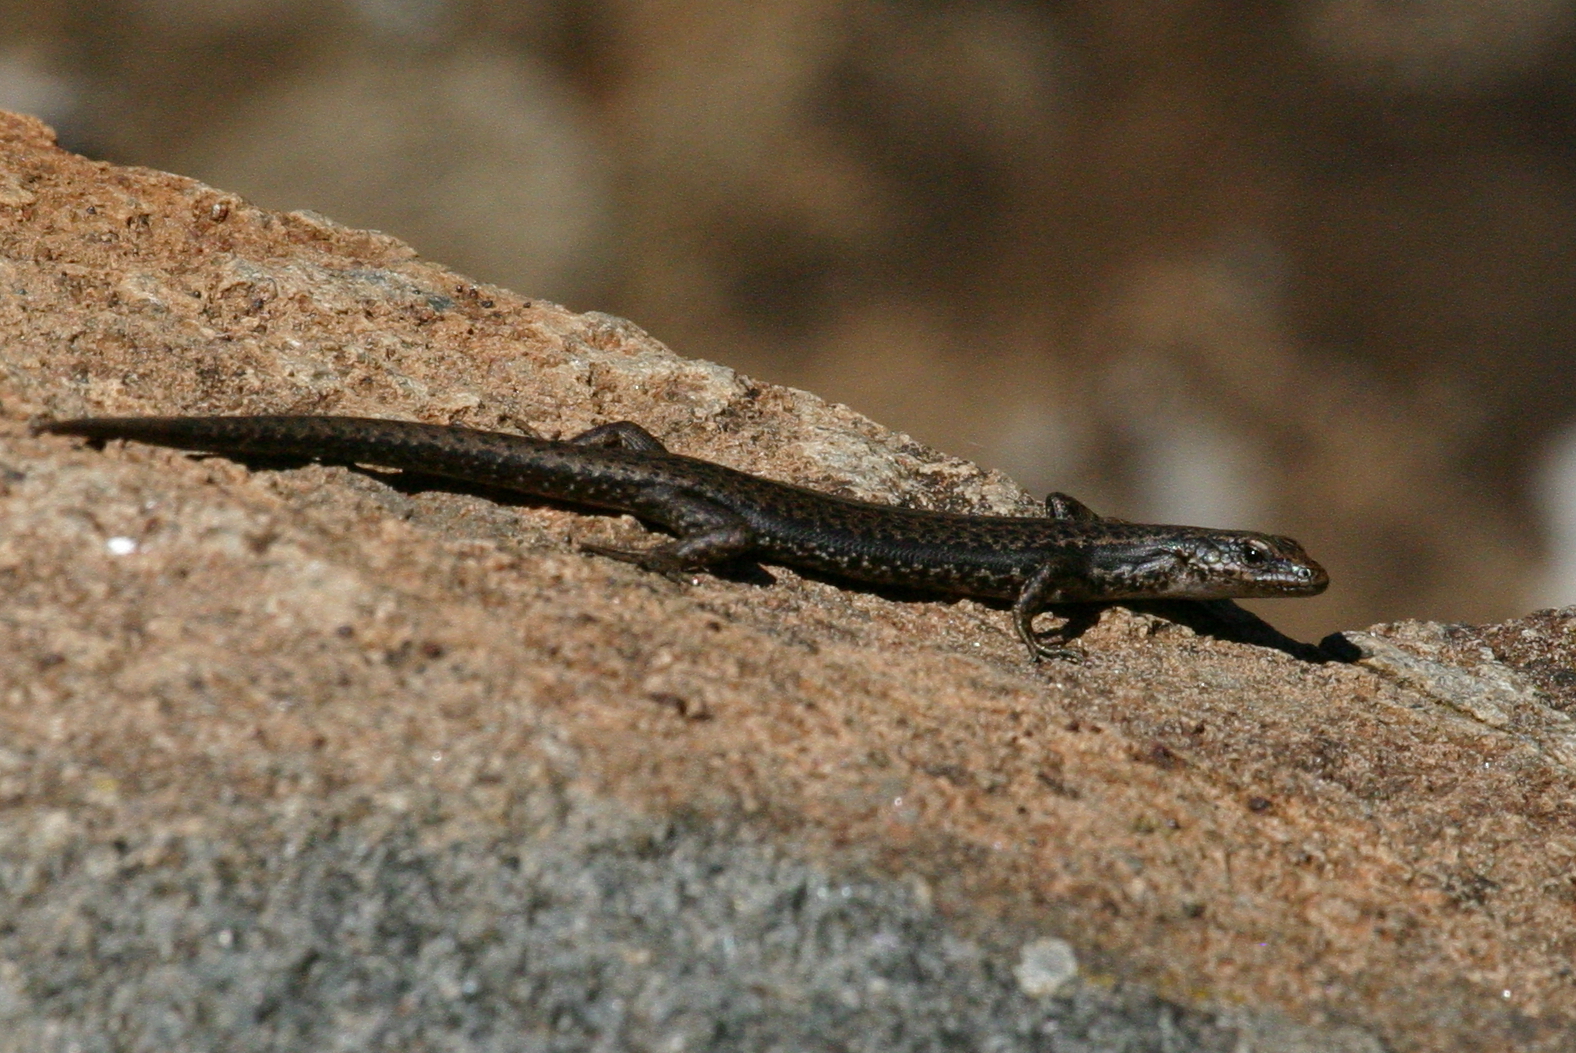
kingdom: Animalia
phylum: Chordata
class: Squamata
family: Scincidae
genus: Carinascincus
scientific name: Carinascincus pretiosus
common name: Agile cool-skink
